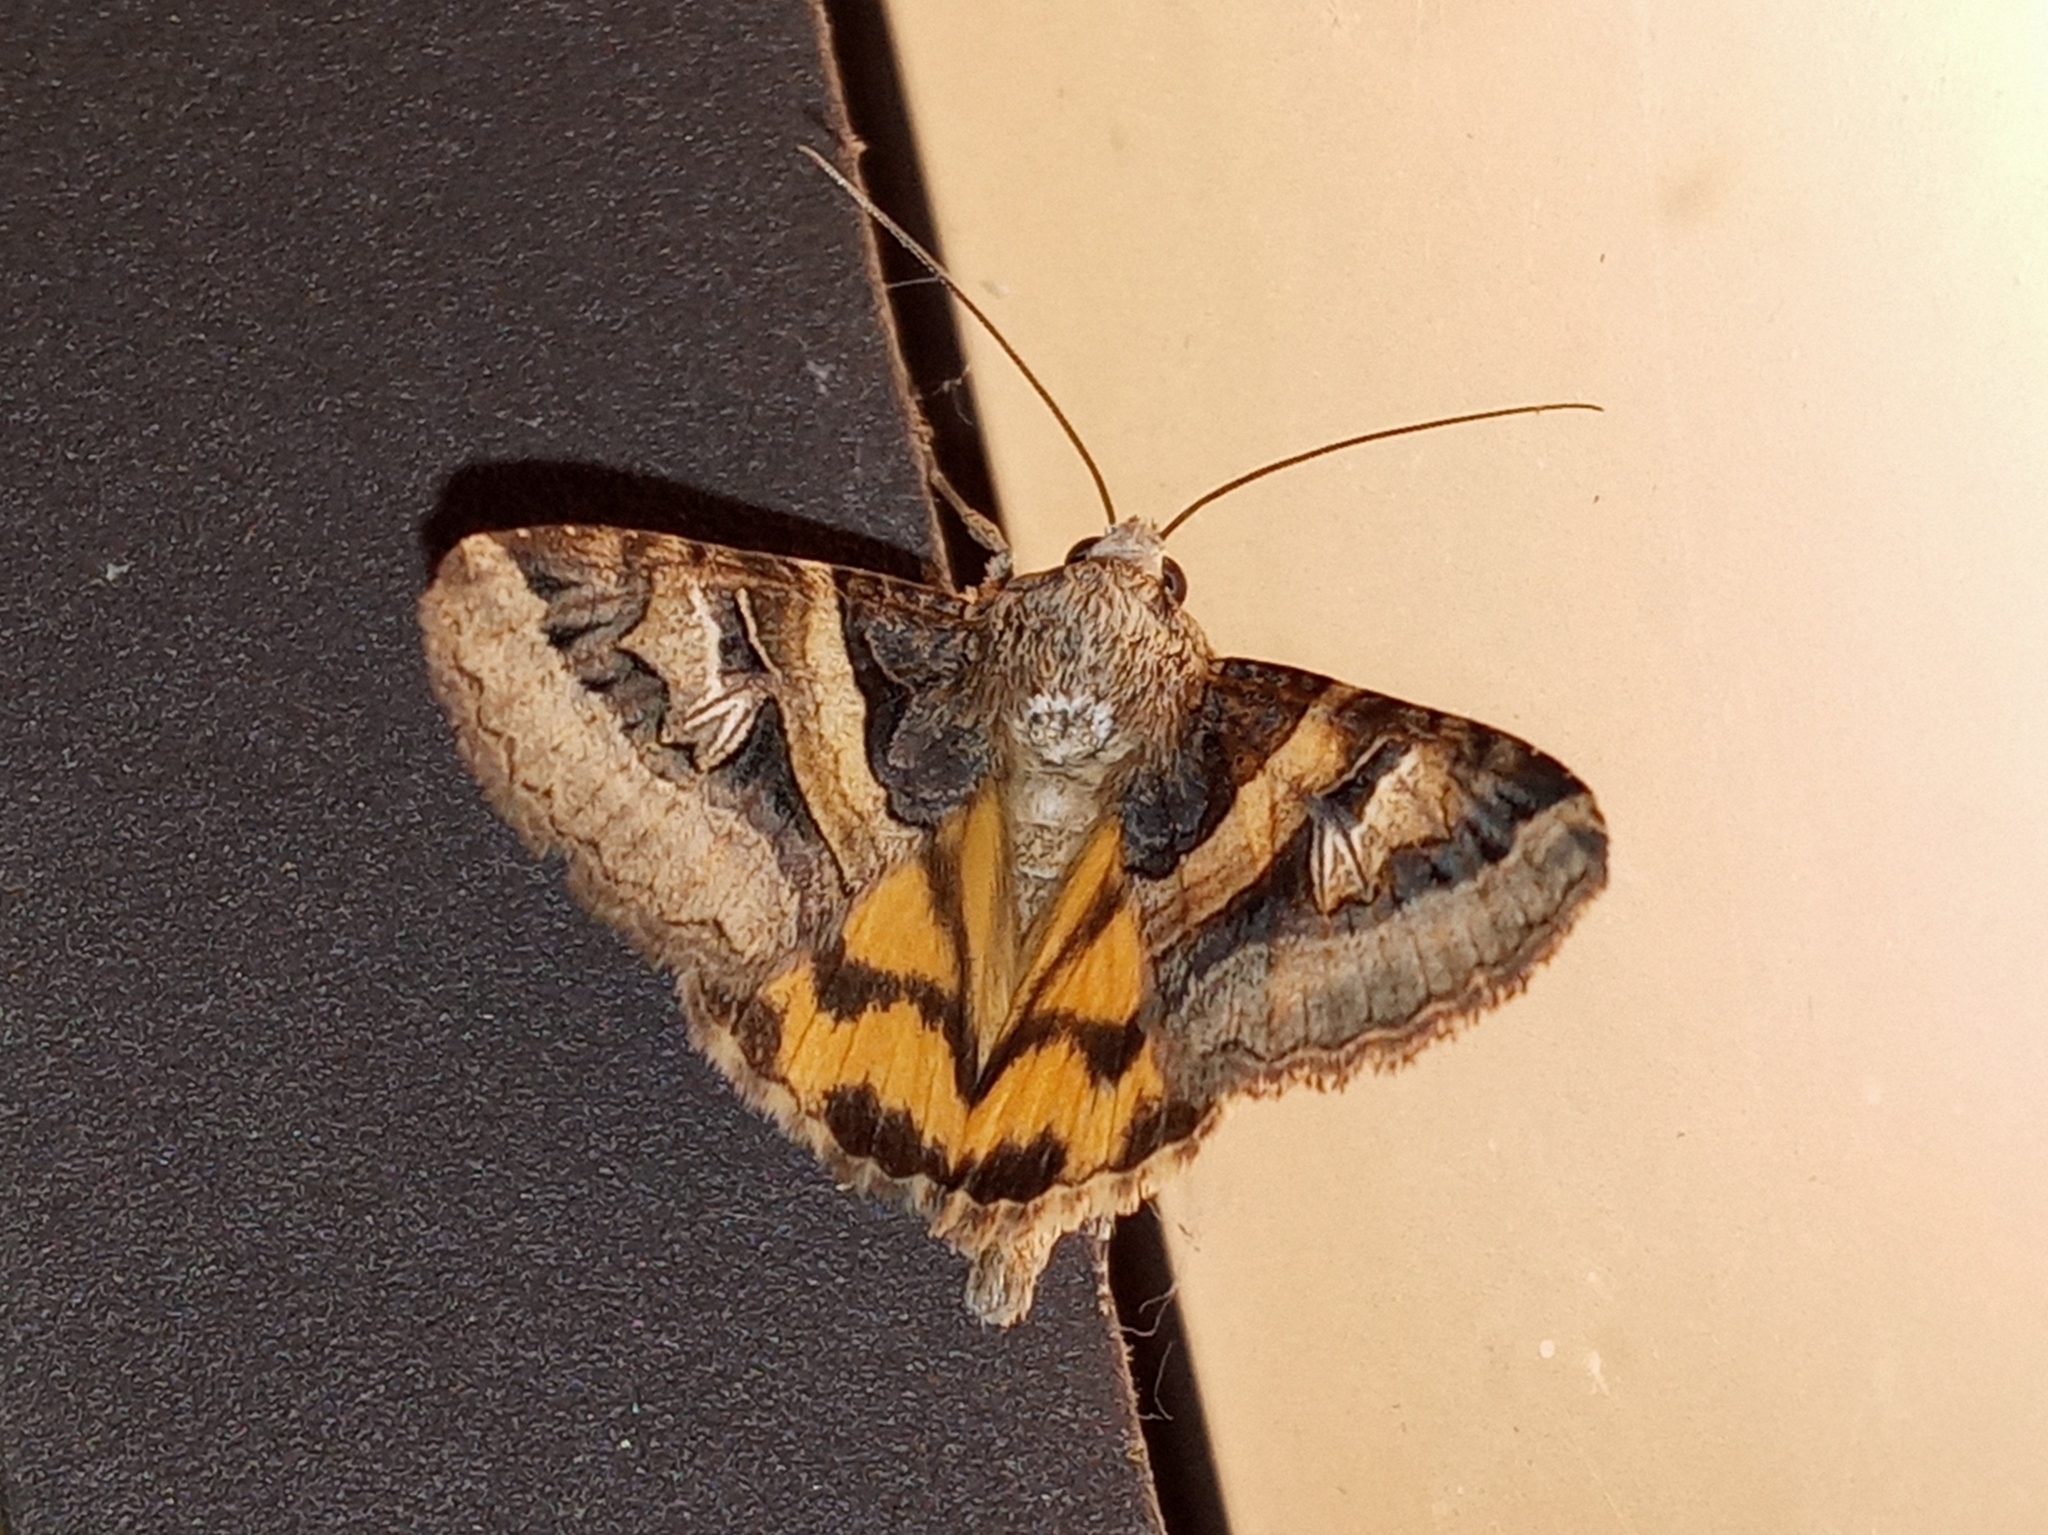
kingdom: Animalia
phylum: Arthropoda
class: Insecta
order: Lepidoptera
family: Erebidae
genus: Drasteria
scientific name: Drasteria divergens
